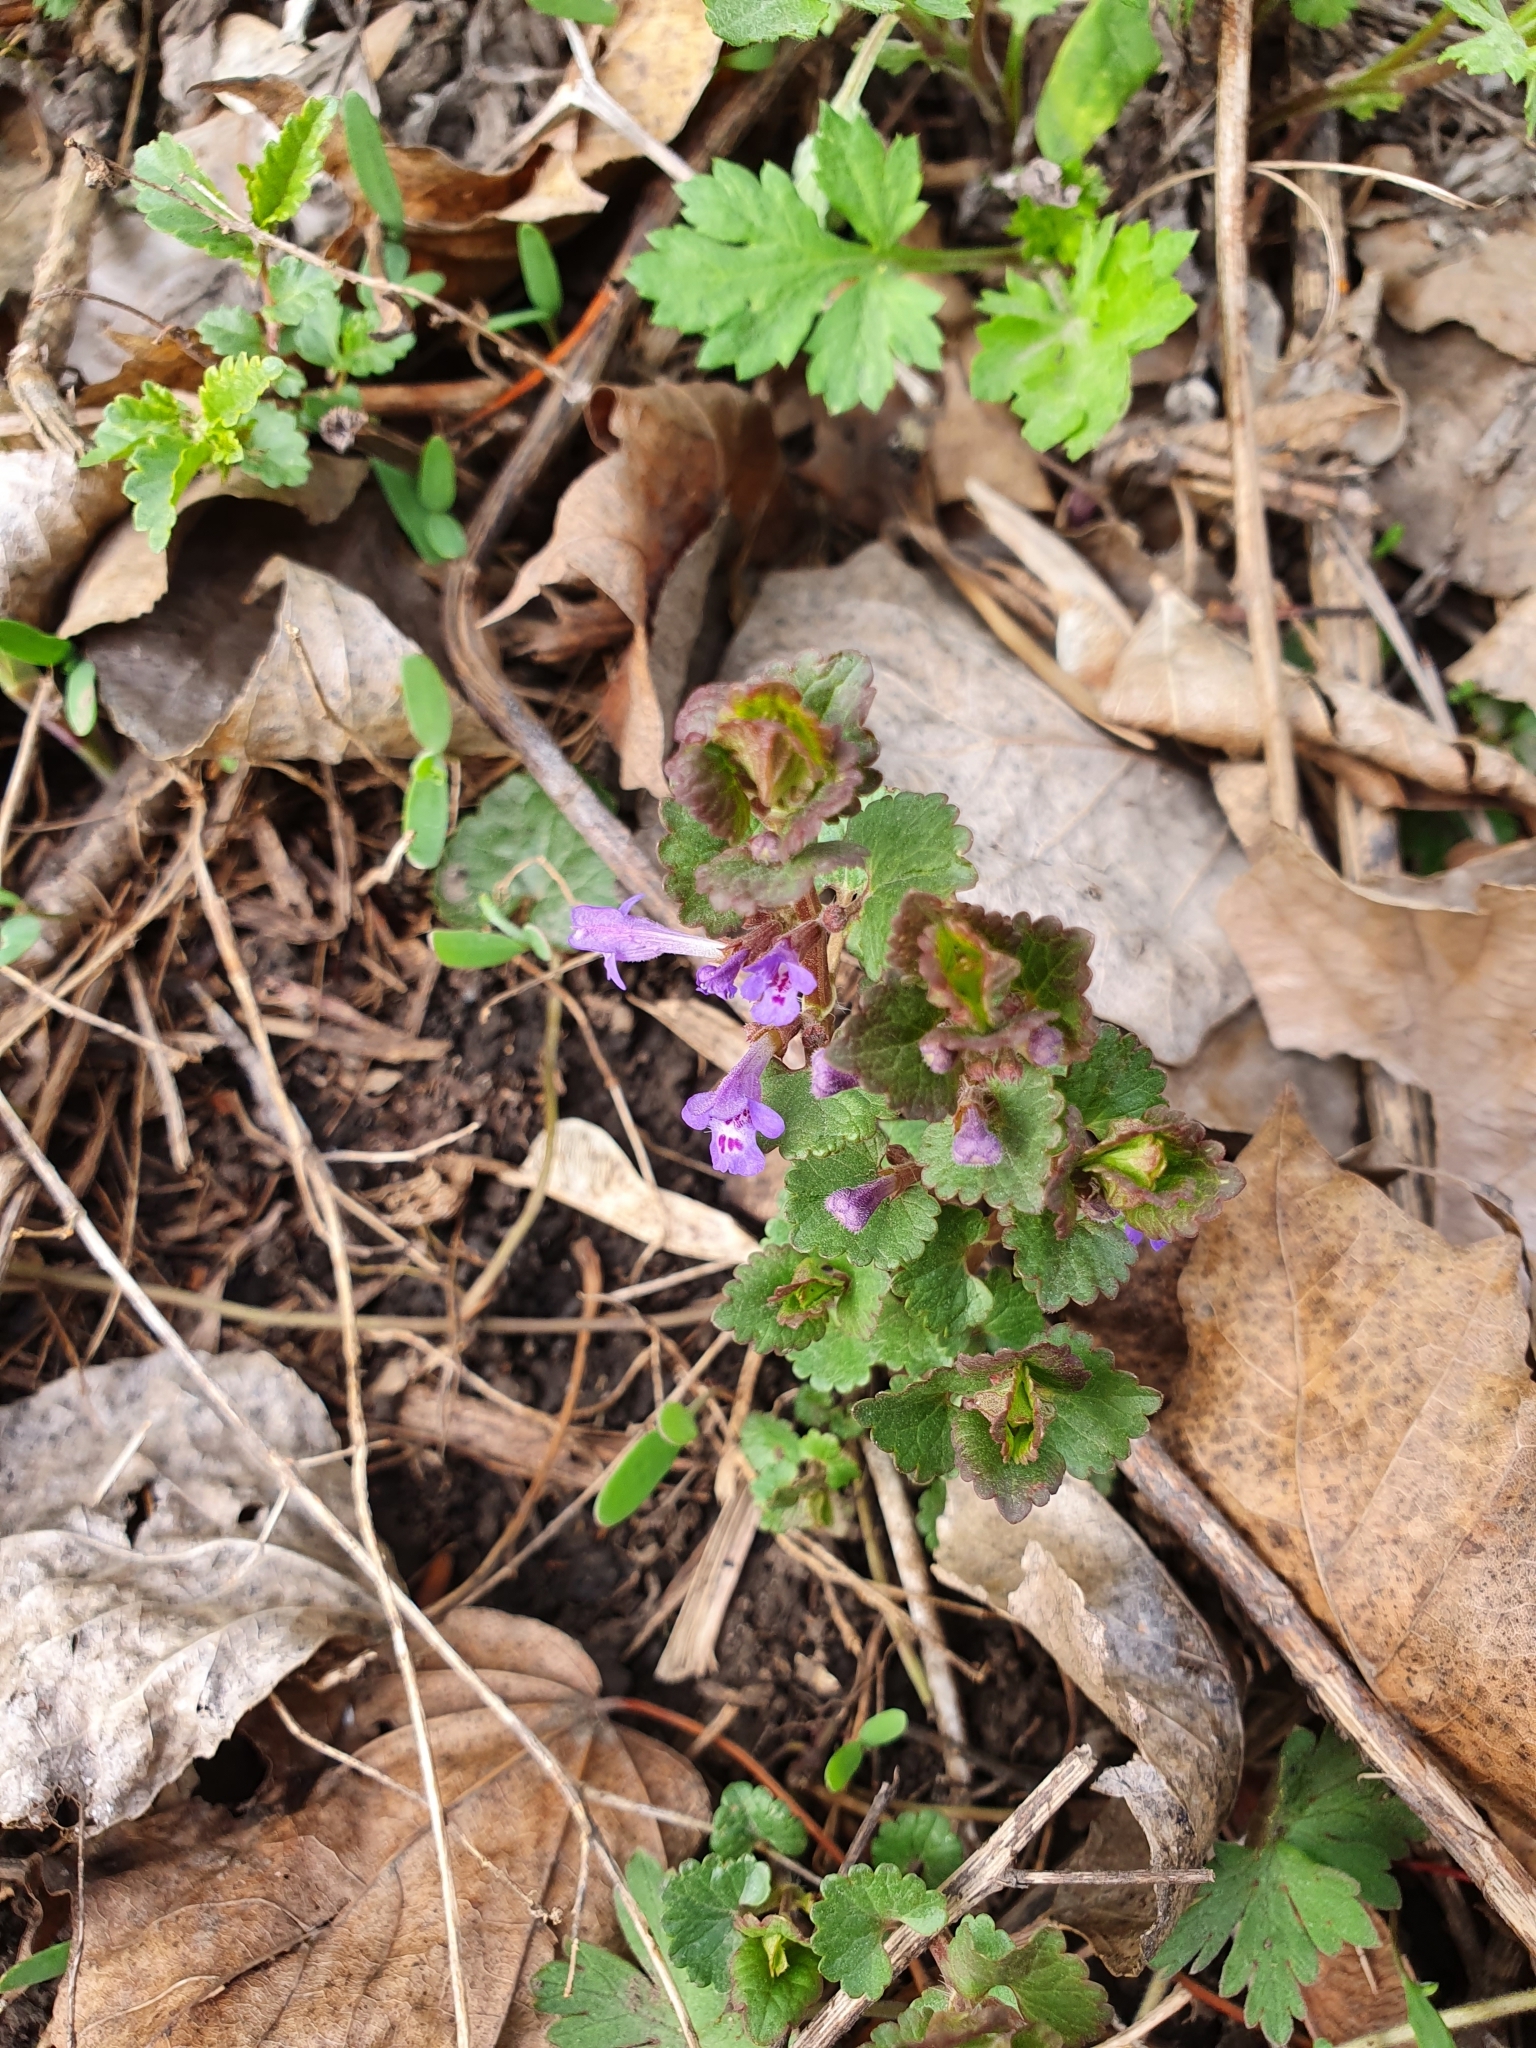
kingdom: Plantae
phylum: Tracheophyta
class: Magnoliopsida
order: Lamiales
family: Lamiaceae
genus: Glechoma
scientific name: Glechoma hederacea
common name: Ground ivy
